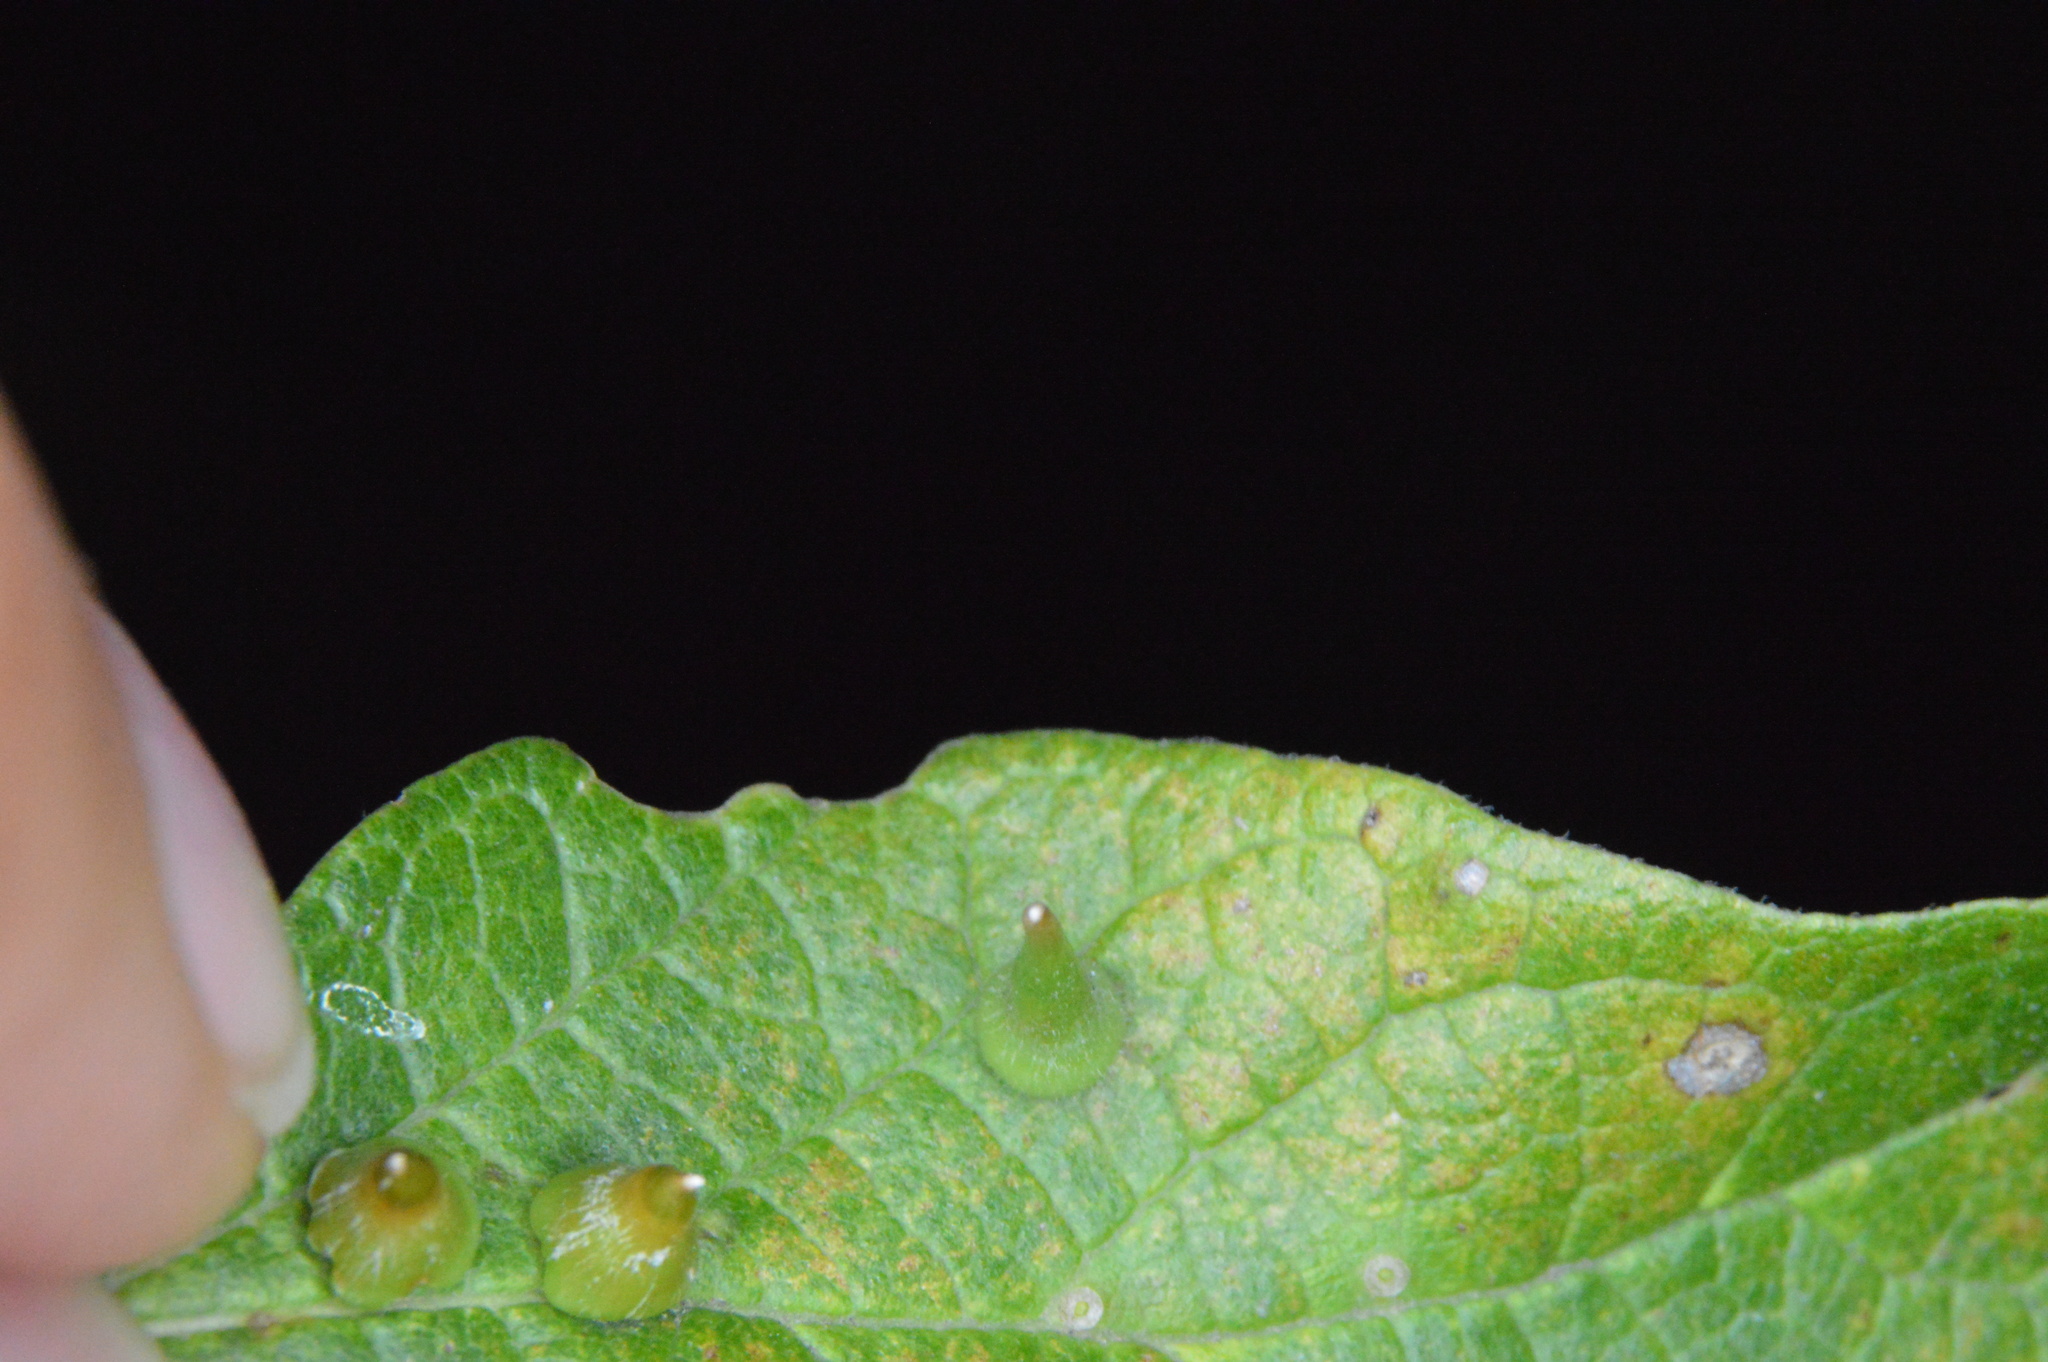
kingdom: Animalia
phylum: Arthropoda
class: Insecta
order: Diptera
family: Cecidomyiidae
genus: Celticecis
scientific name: Celticecis subulata
